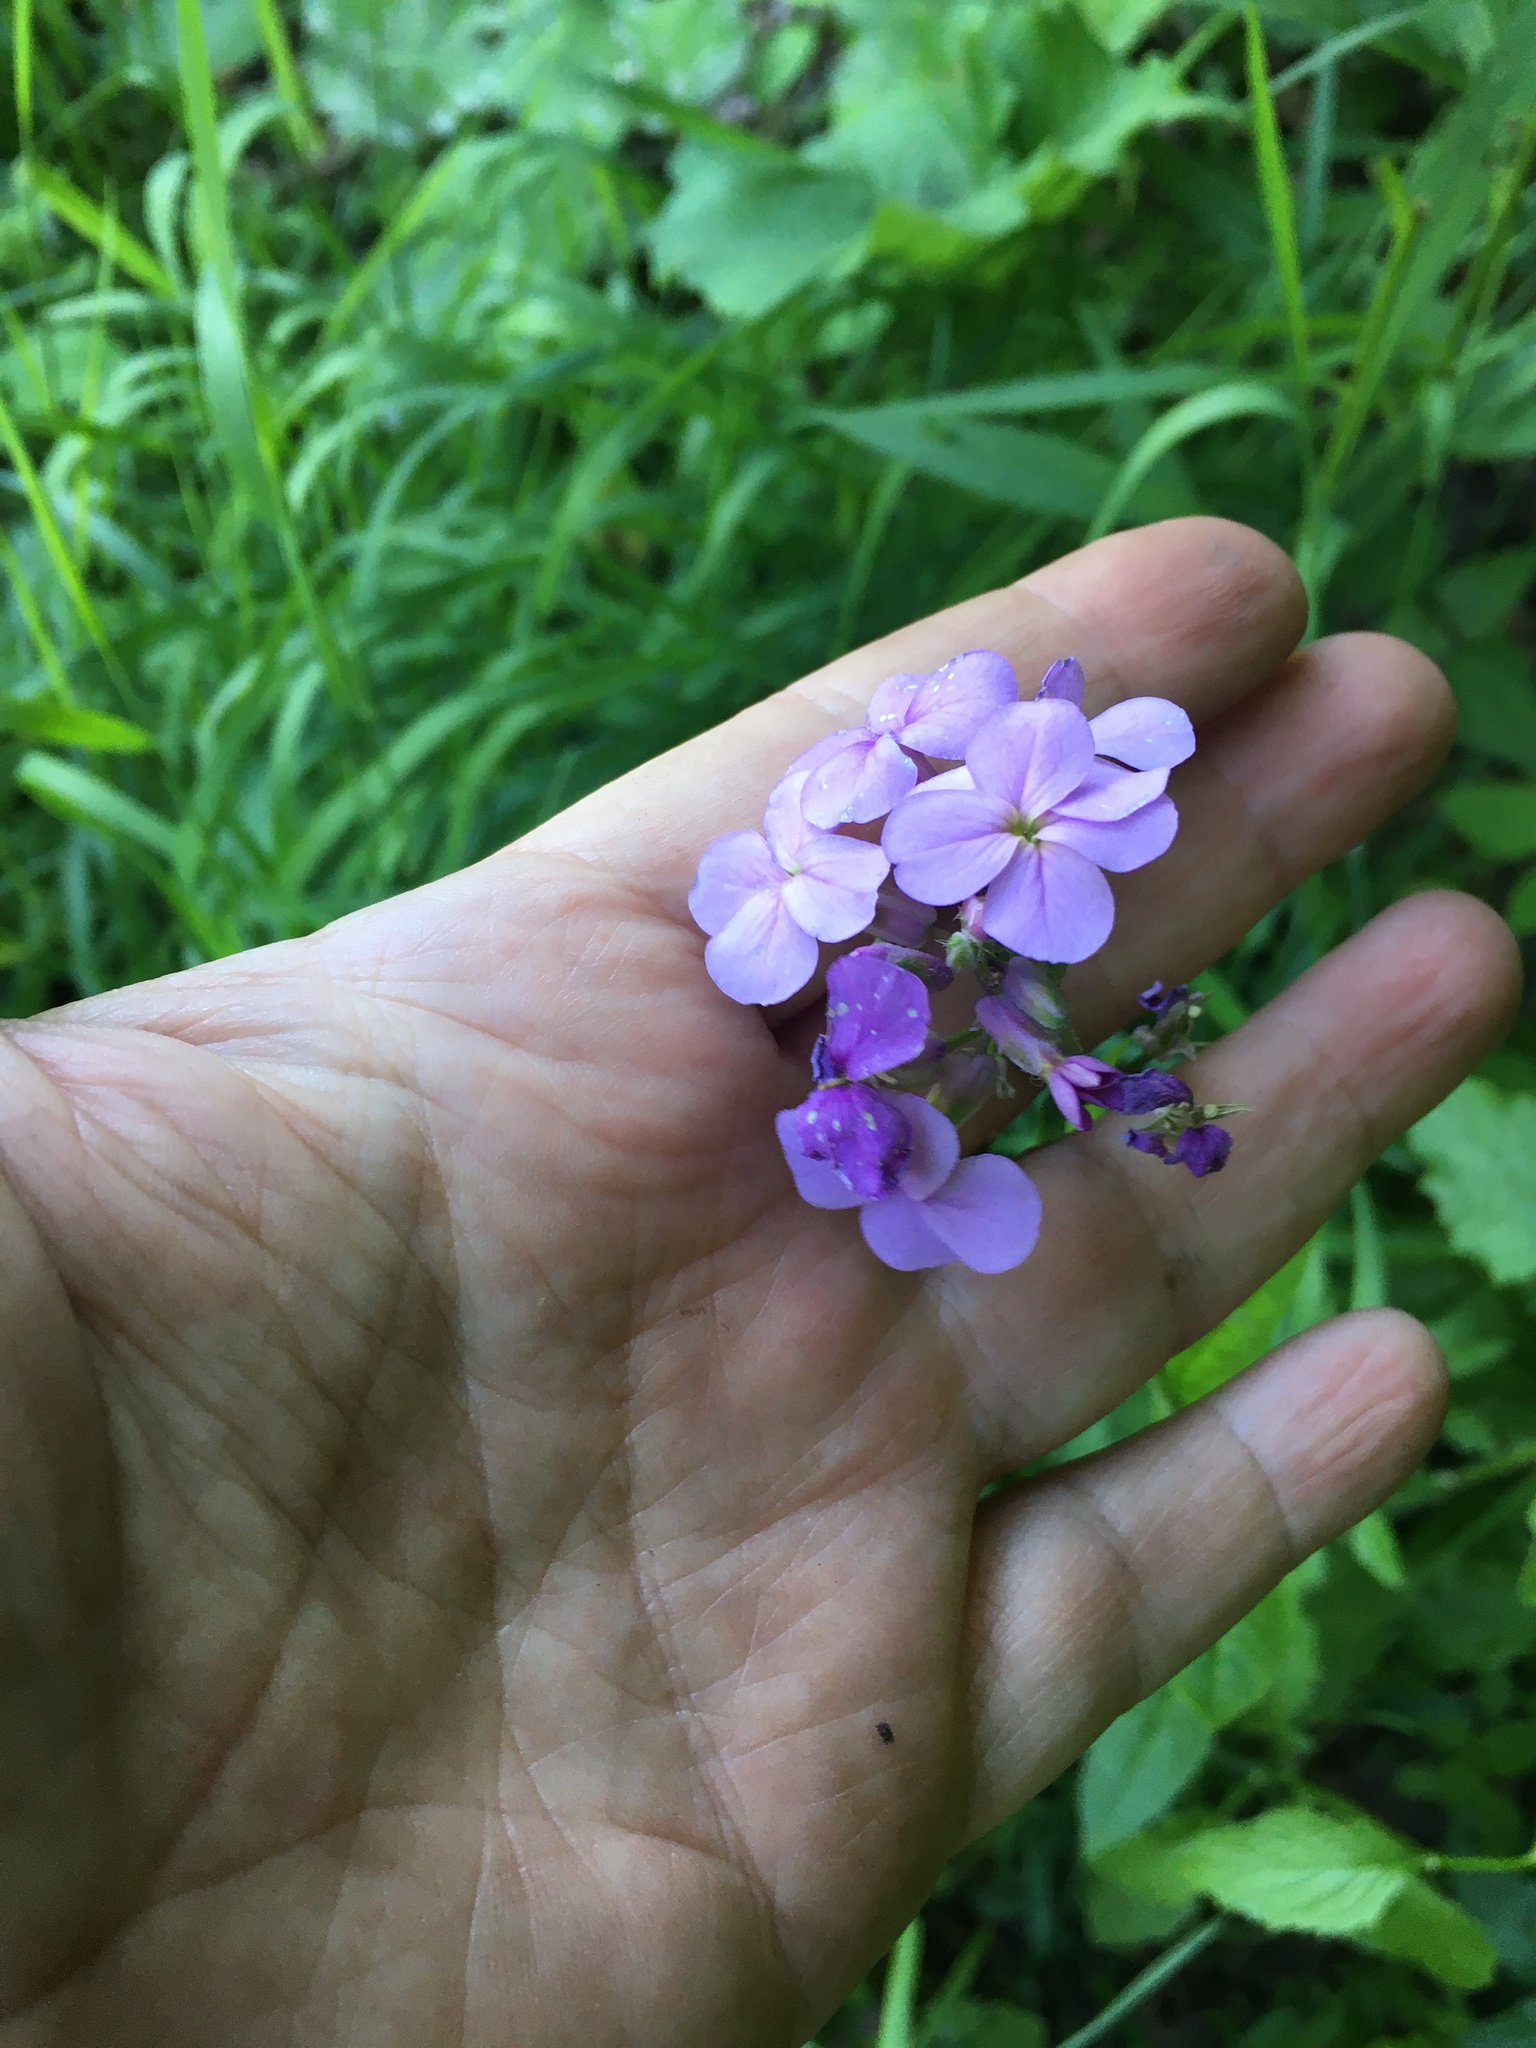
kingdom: Plantae
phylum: Tracheophyta
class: Magnoliopsida
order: Brassicales
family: Brassicaceae
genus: Hesperis
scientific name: Hesperis matronalis
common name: Dame's-violet
